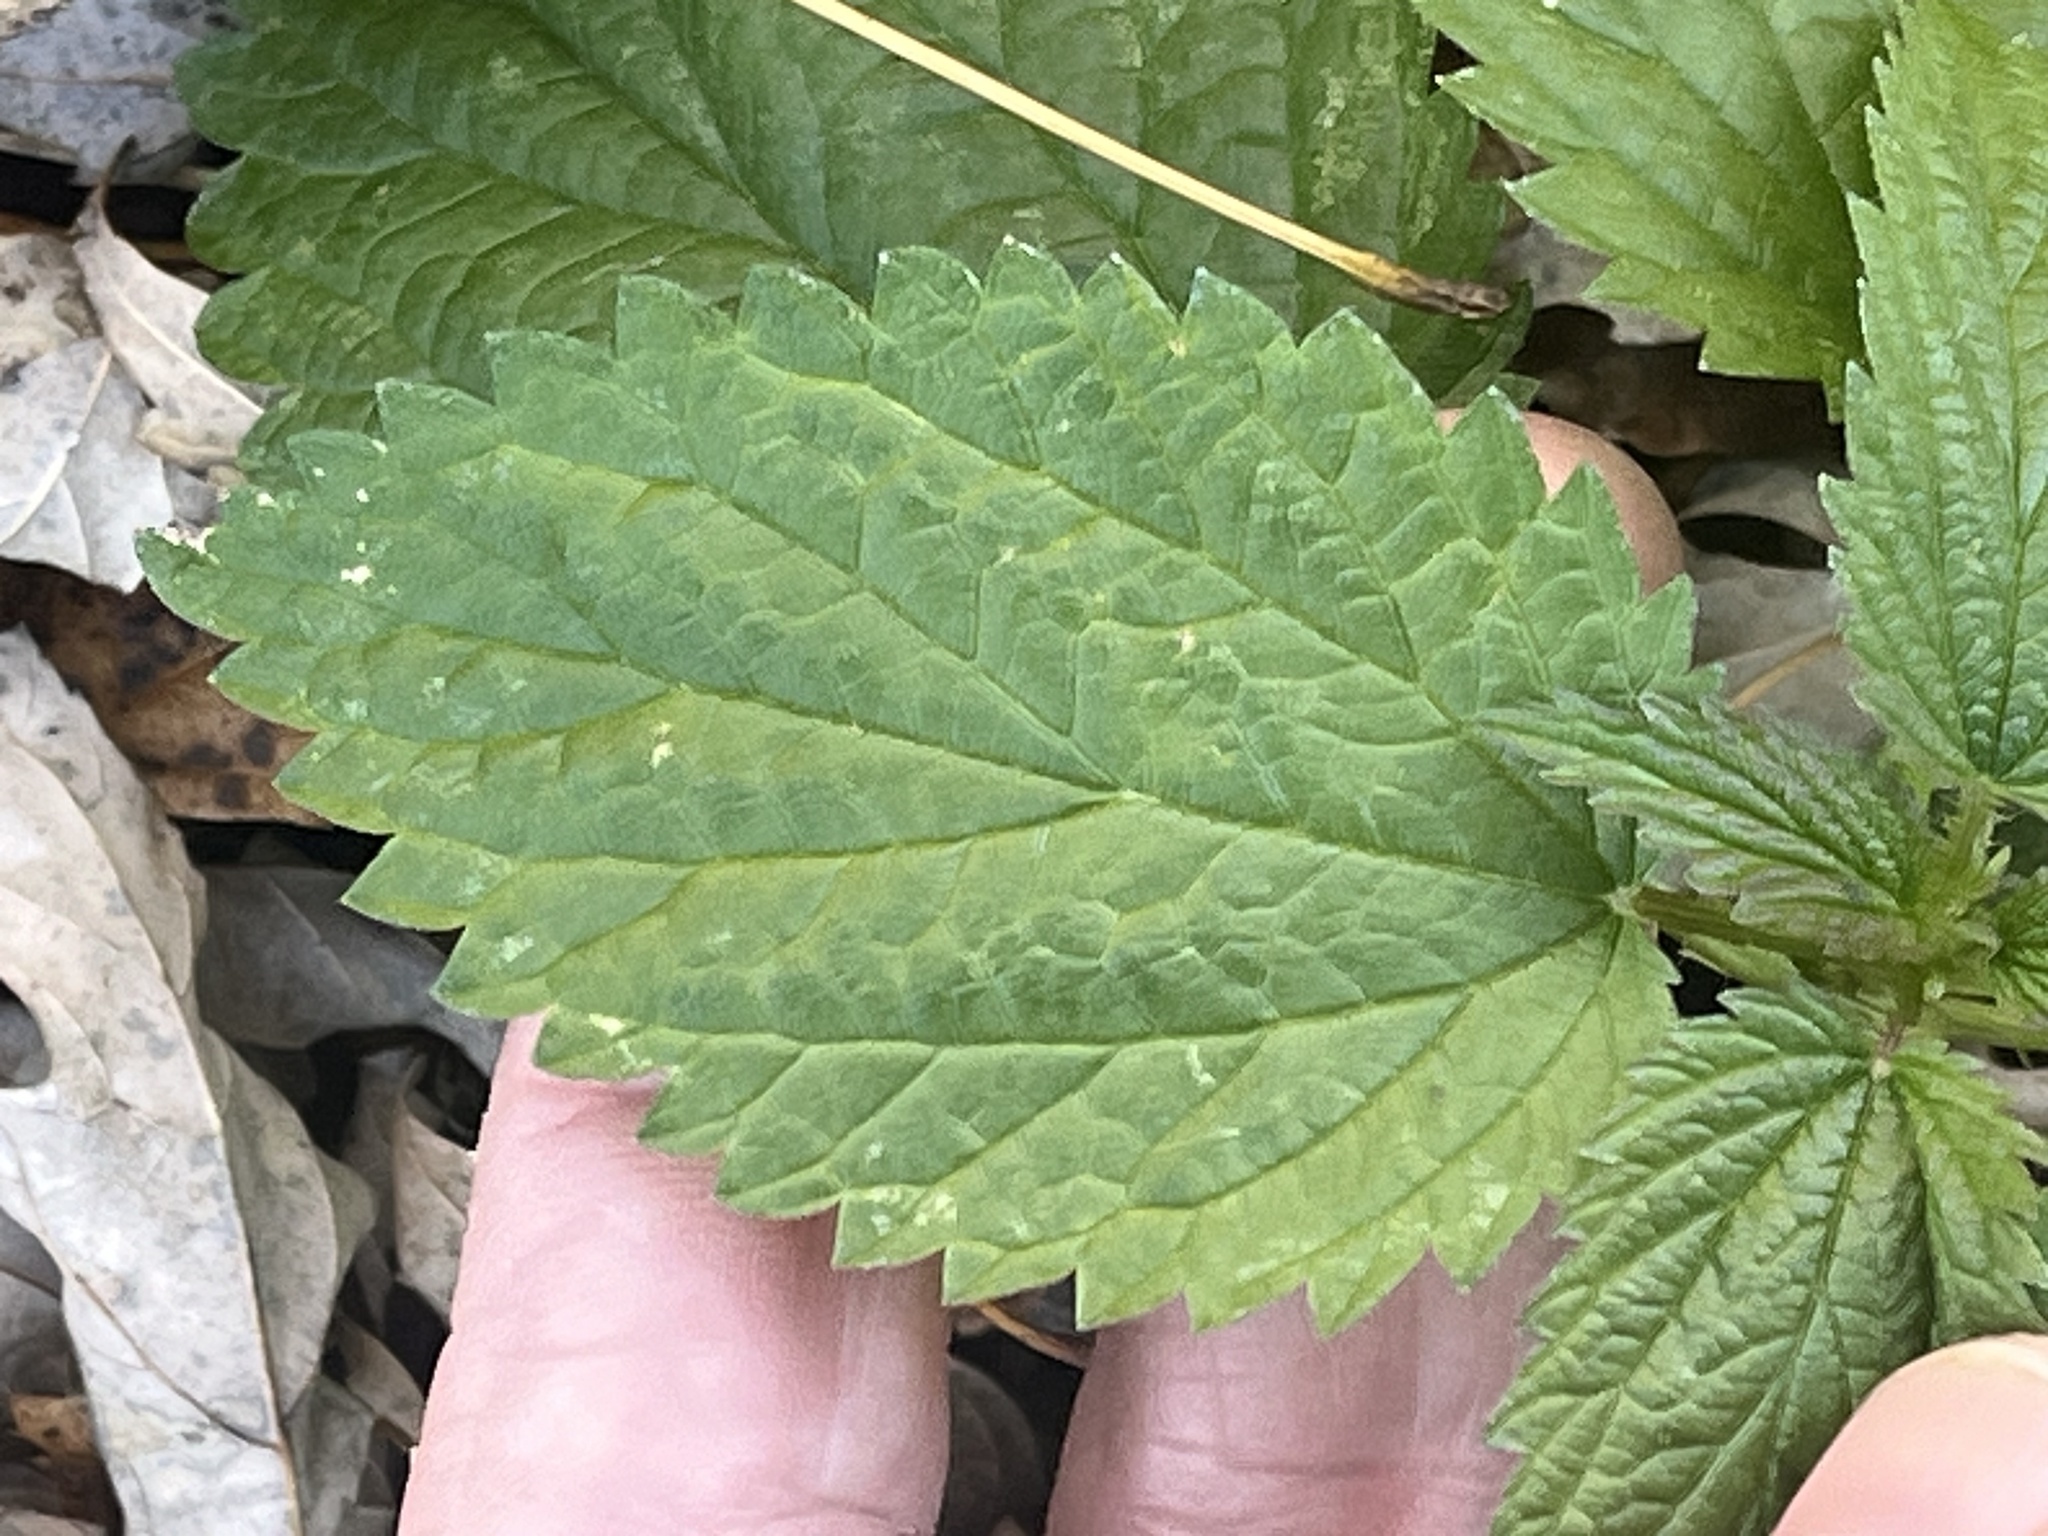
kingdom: Plantae
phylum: Tracheophyta
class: Magnoliopsida
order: Rosales
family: Urticaceae
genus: Laportea
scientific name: Laportea canadensis
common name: Canada nettle
